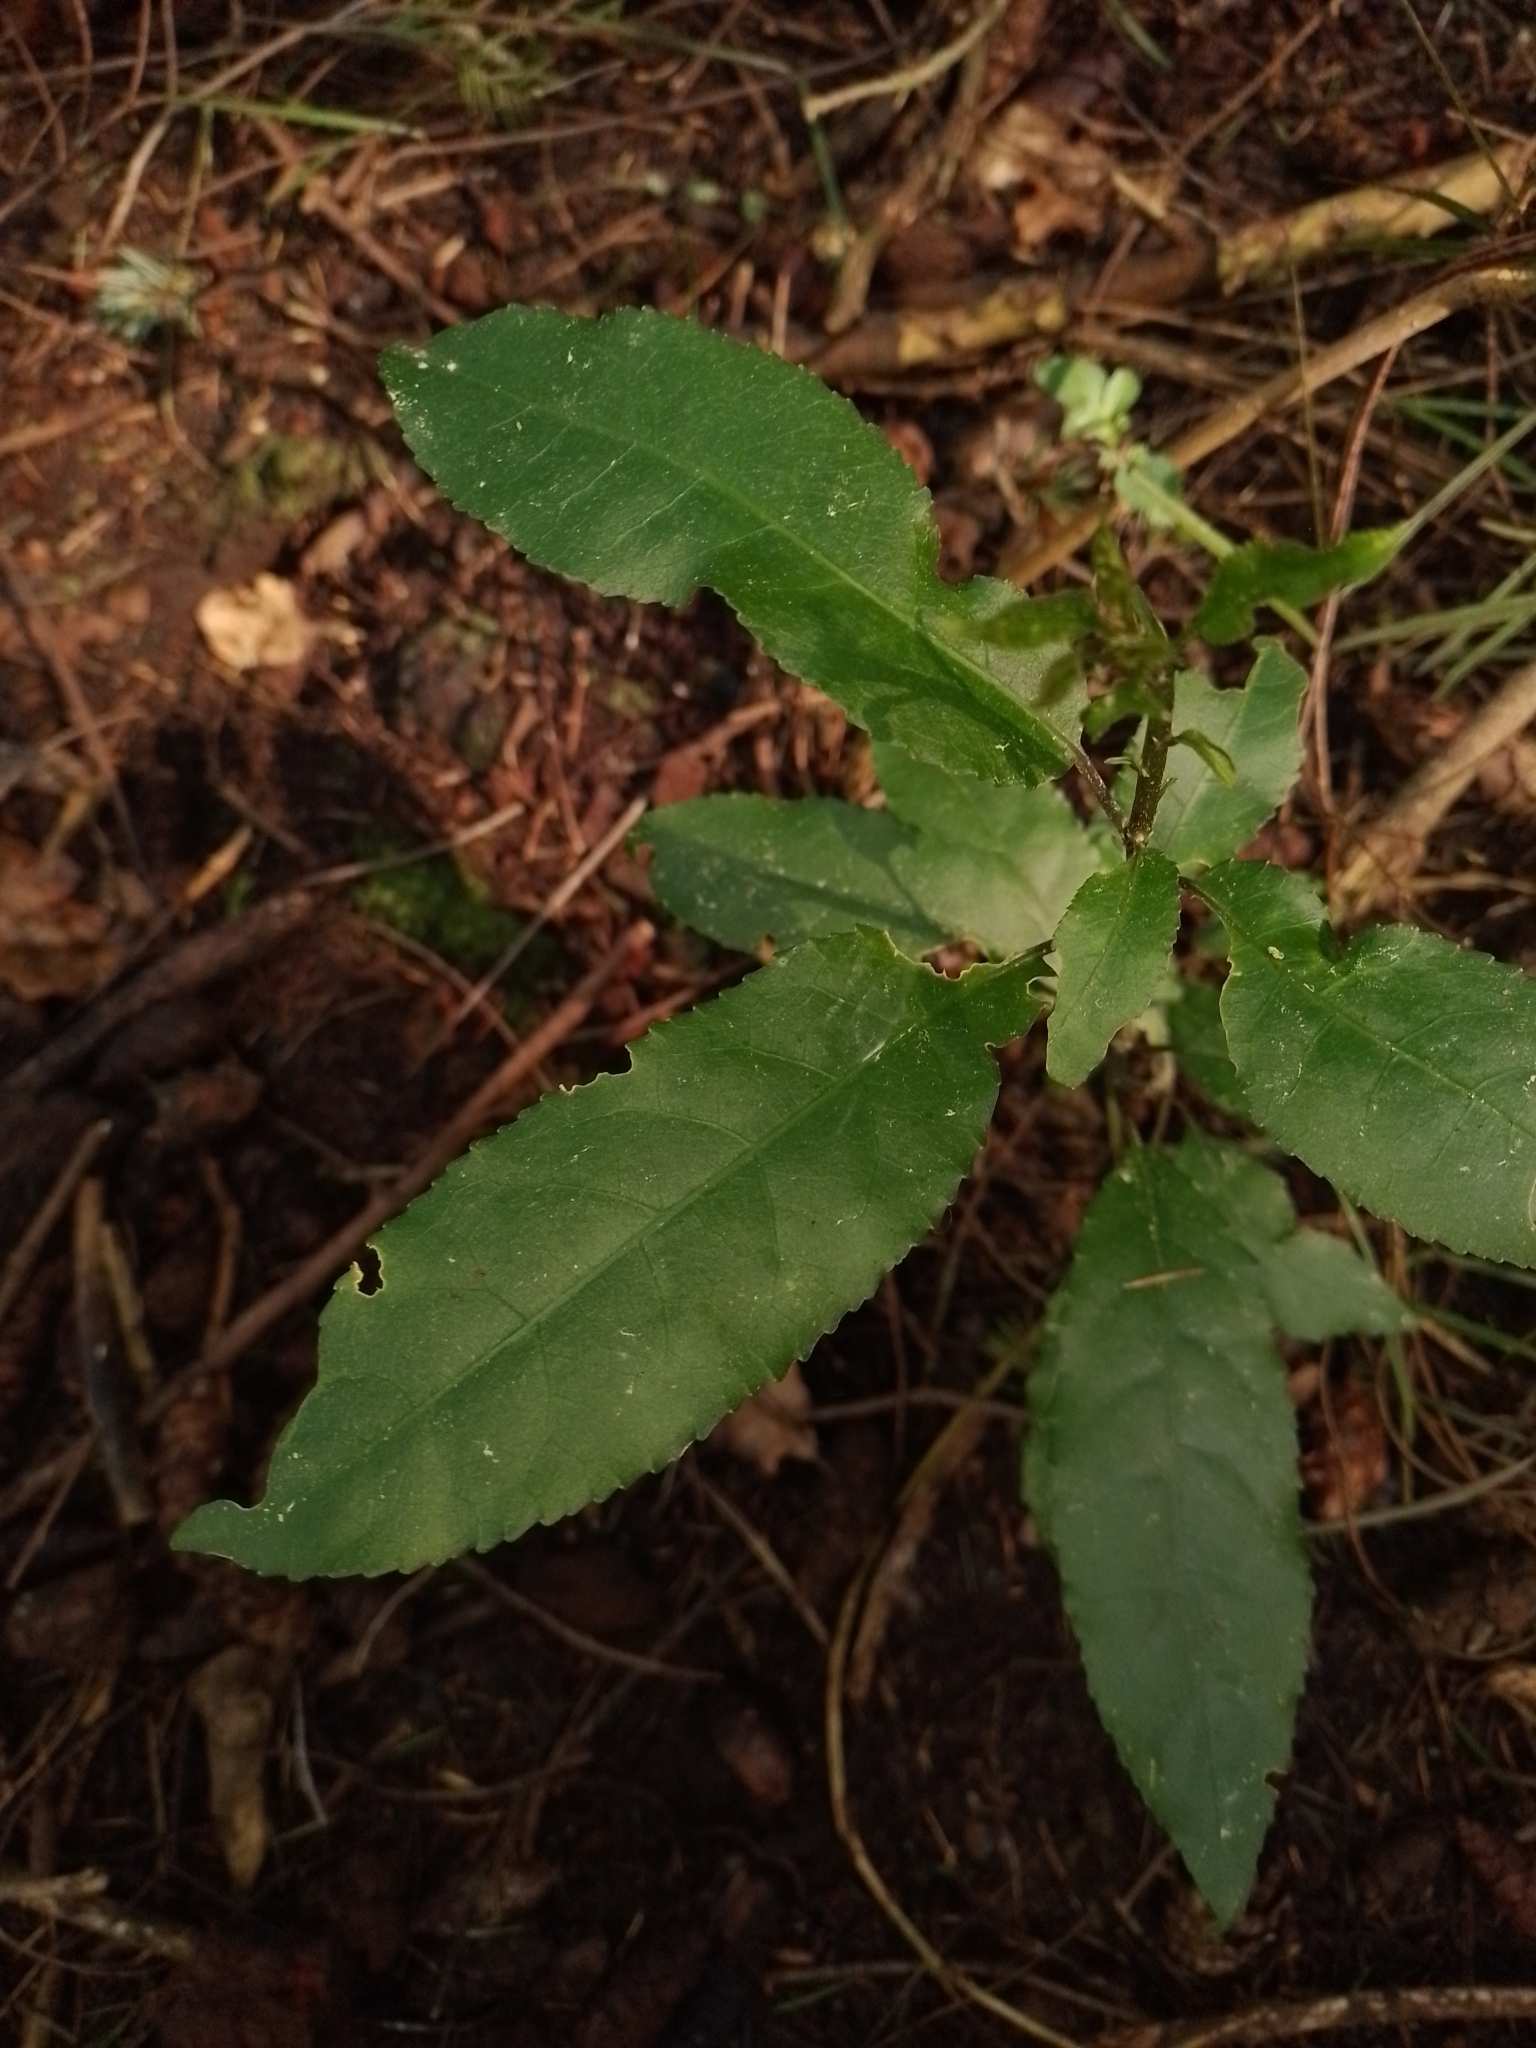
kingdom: Plantae
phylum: Tracheophyta
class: Magnoliopsida
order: Malpighiales
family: Violaceae
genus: Melicytus
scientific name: Melicytus ramiflorus
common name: Mahoe
